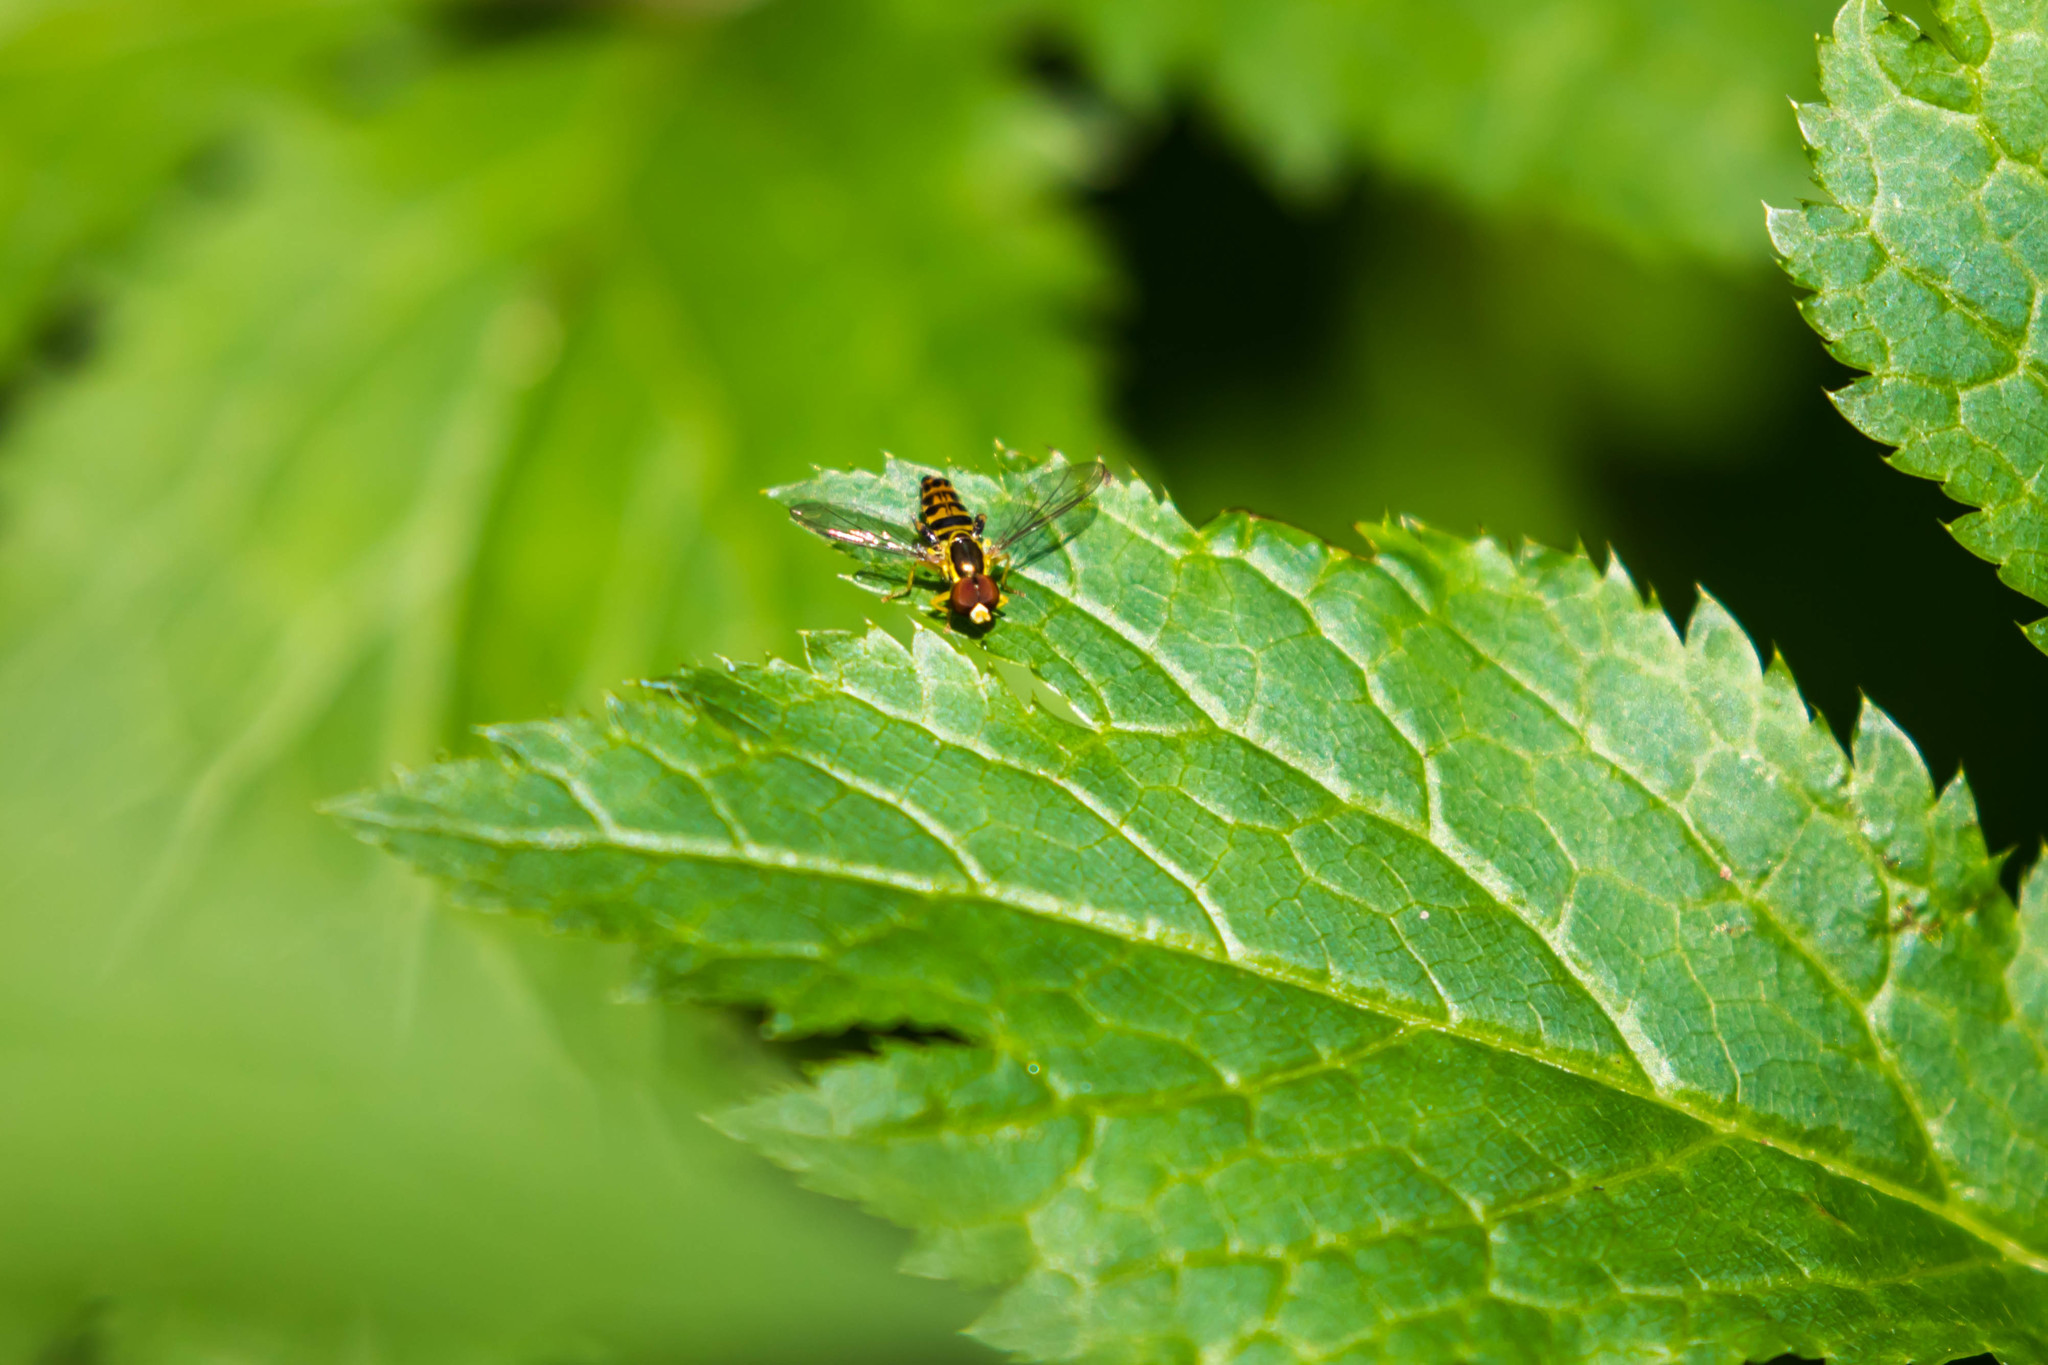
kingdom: Animalia
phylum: Arthropoda
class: Insecta
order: Diptera
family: Syrphidae
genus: Toxomerus
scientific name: Toxomerus geminatus
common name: Eastern calligrapher
